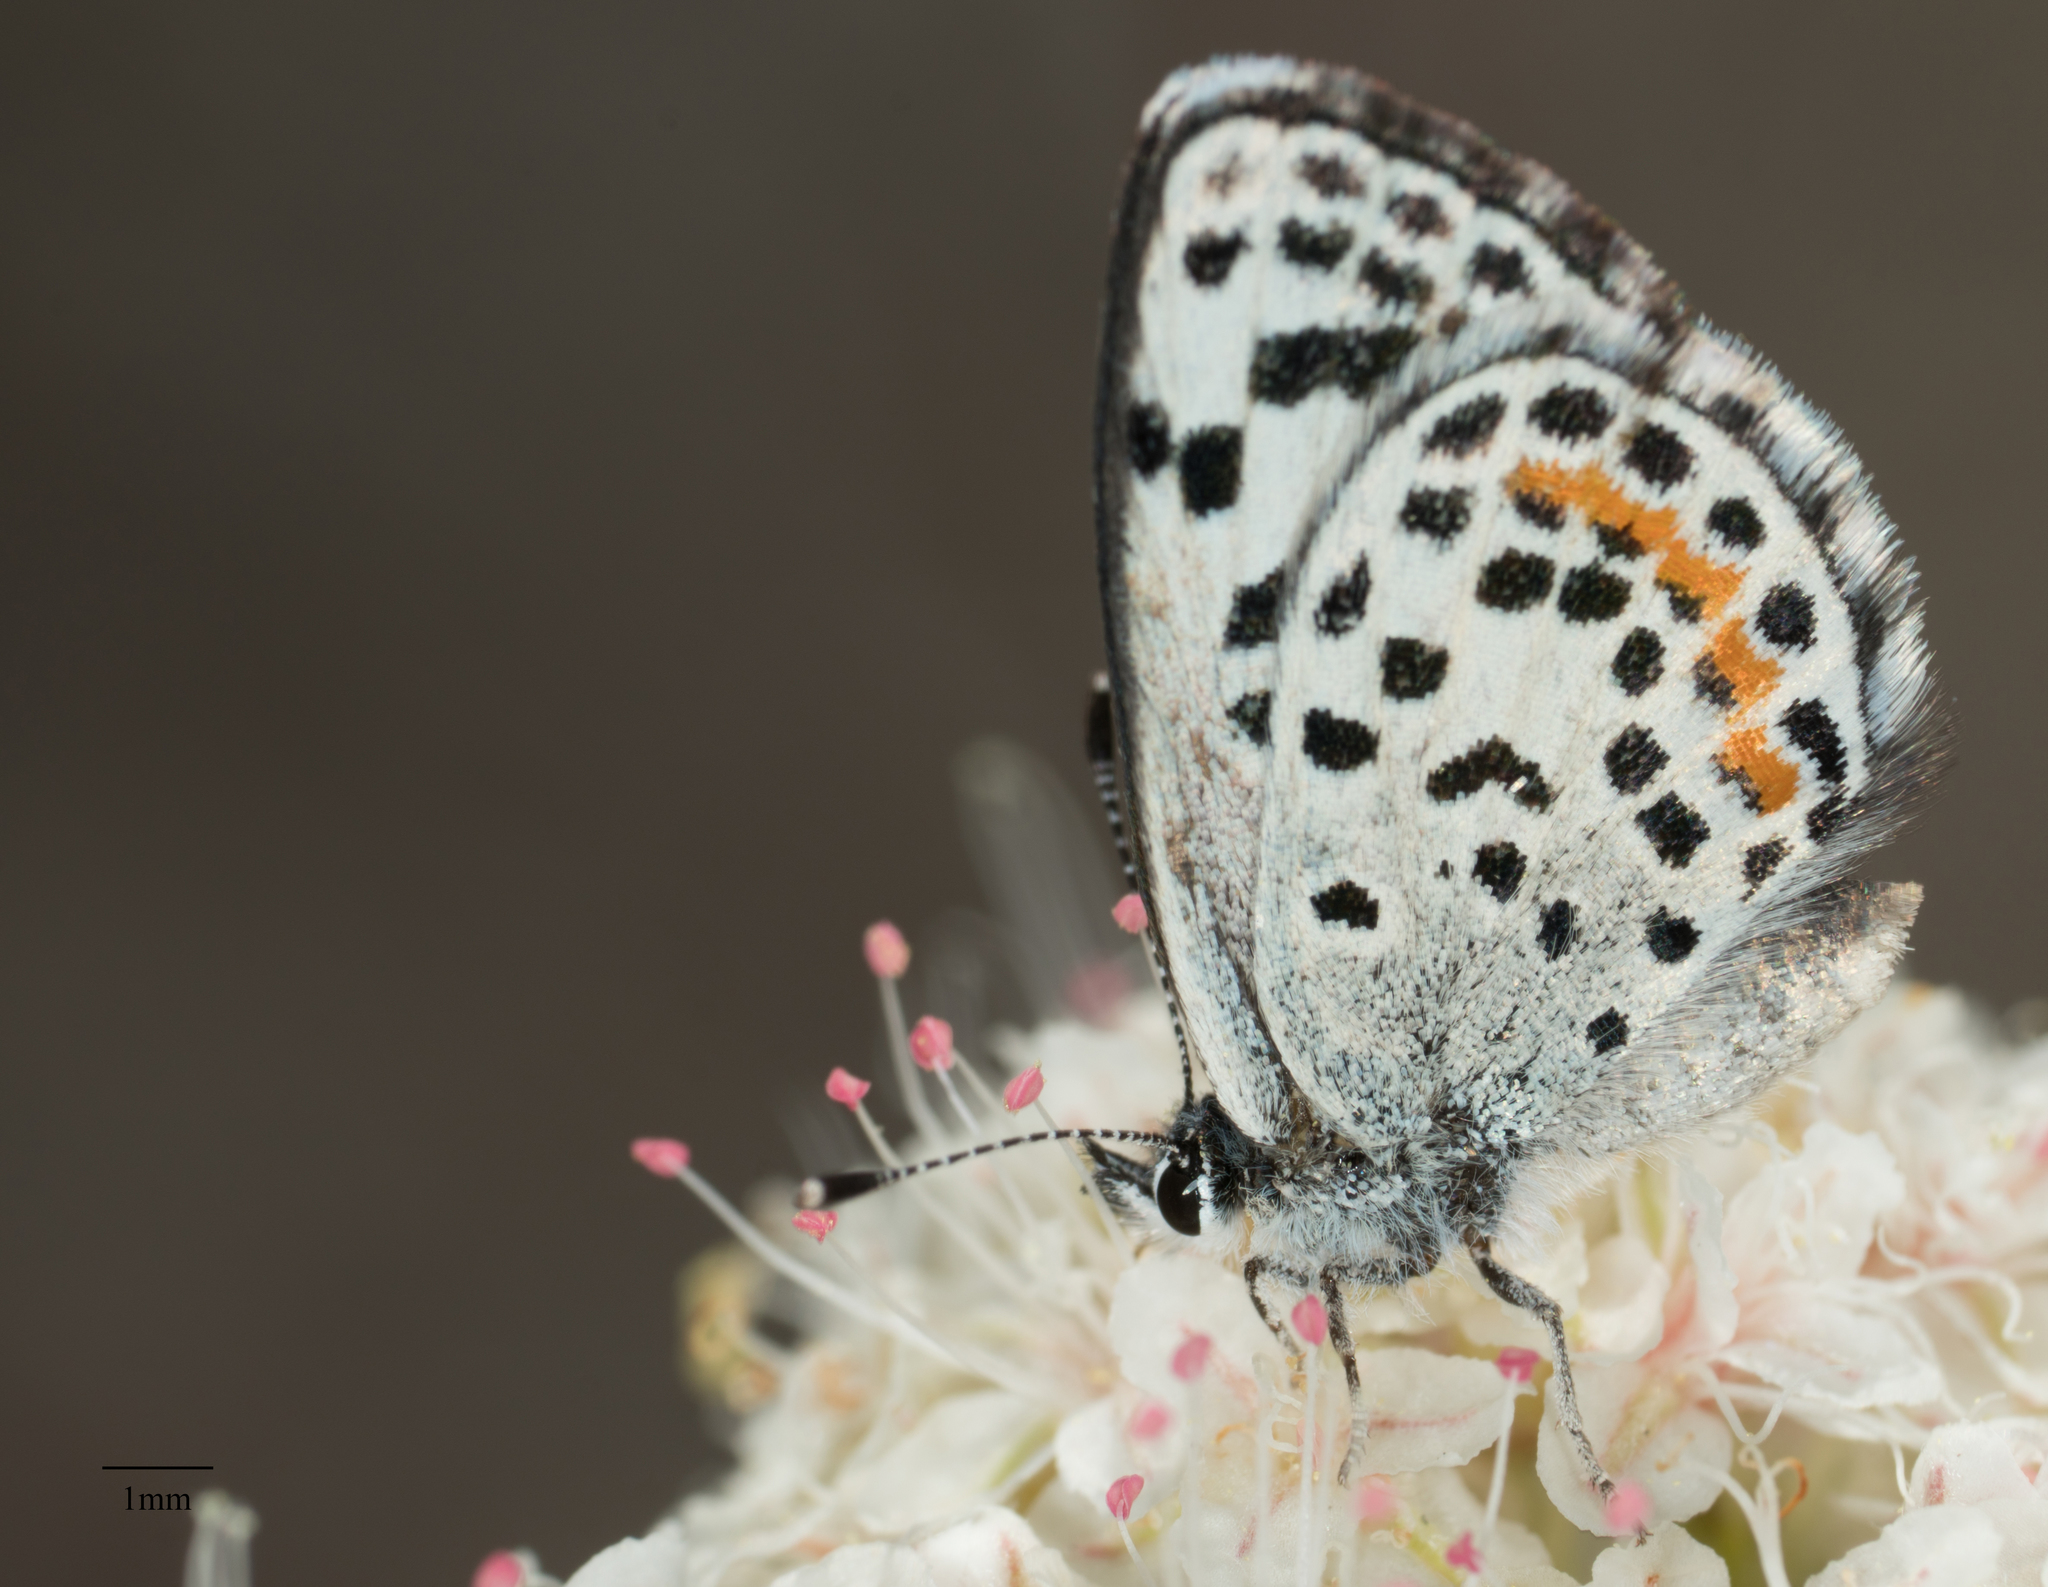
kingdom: Animalia
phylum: Arthropoda
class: Insecta
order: Lepidoptera
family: Lycaenidae
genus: Philotes
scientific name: Philotes bernardino
